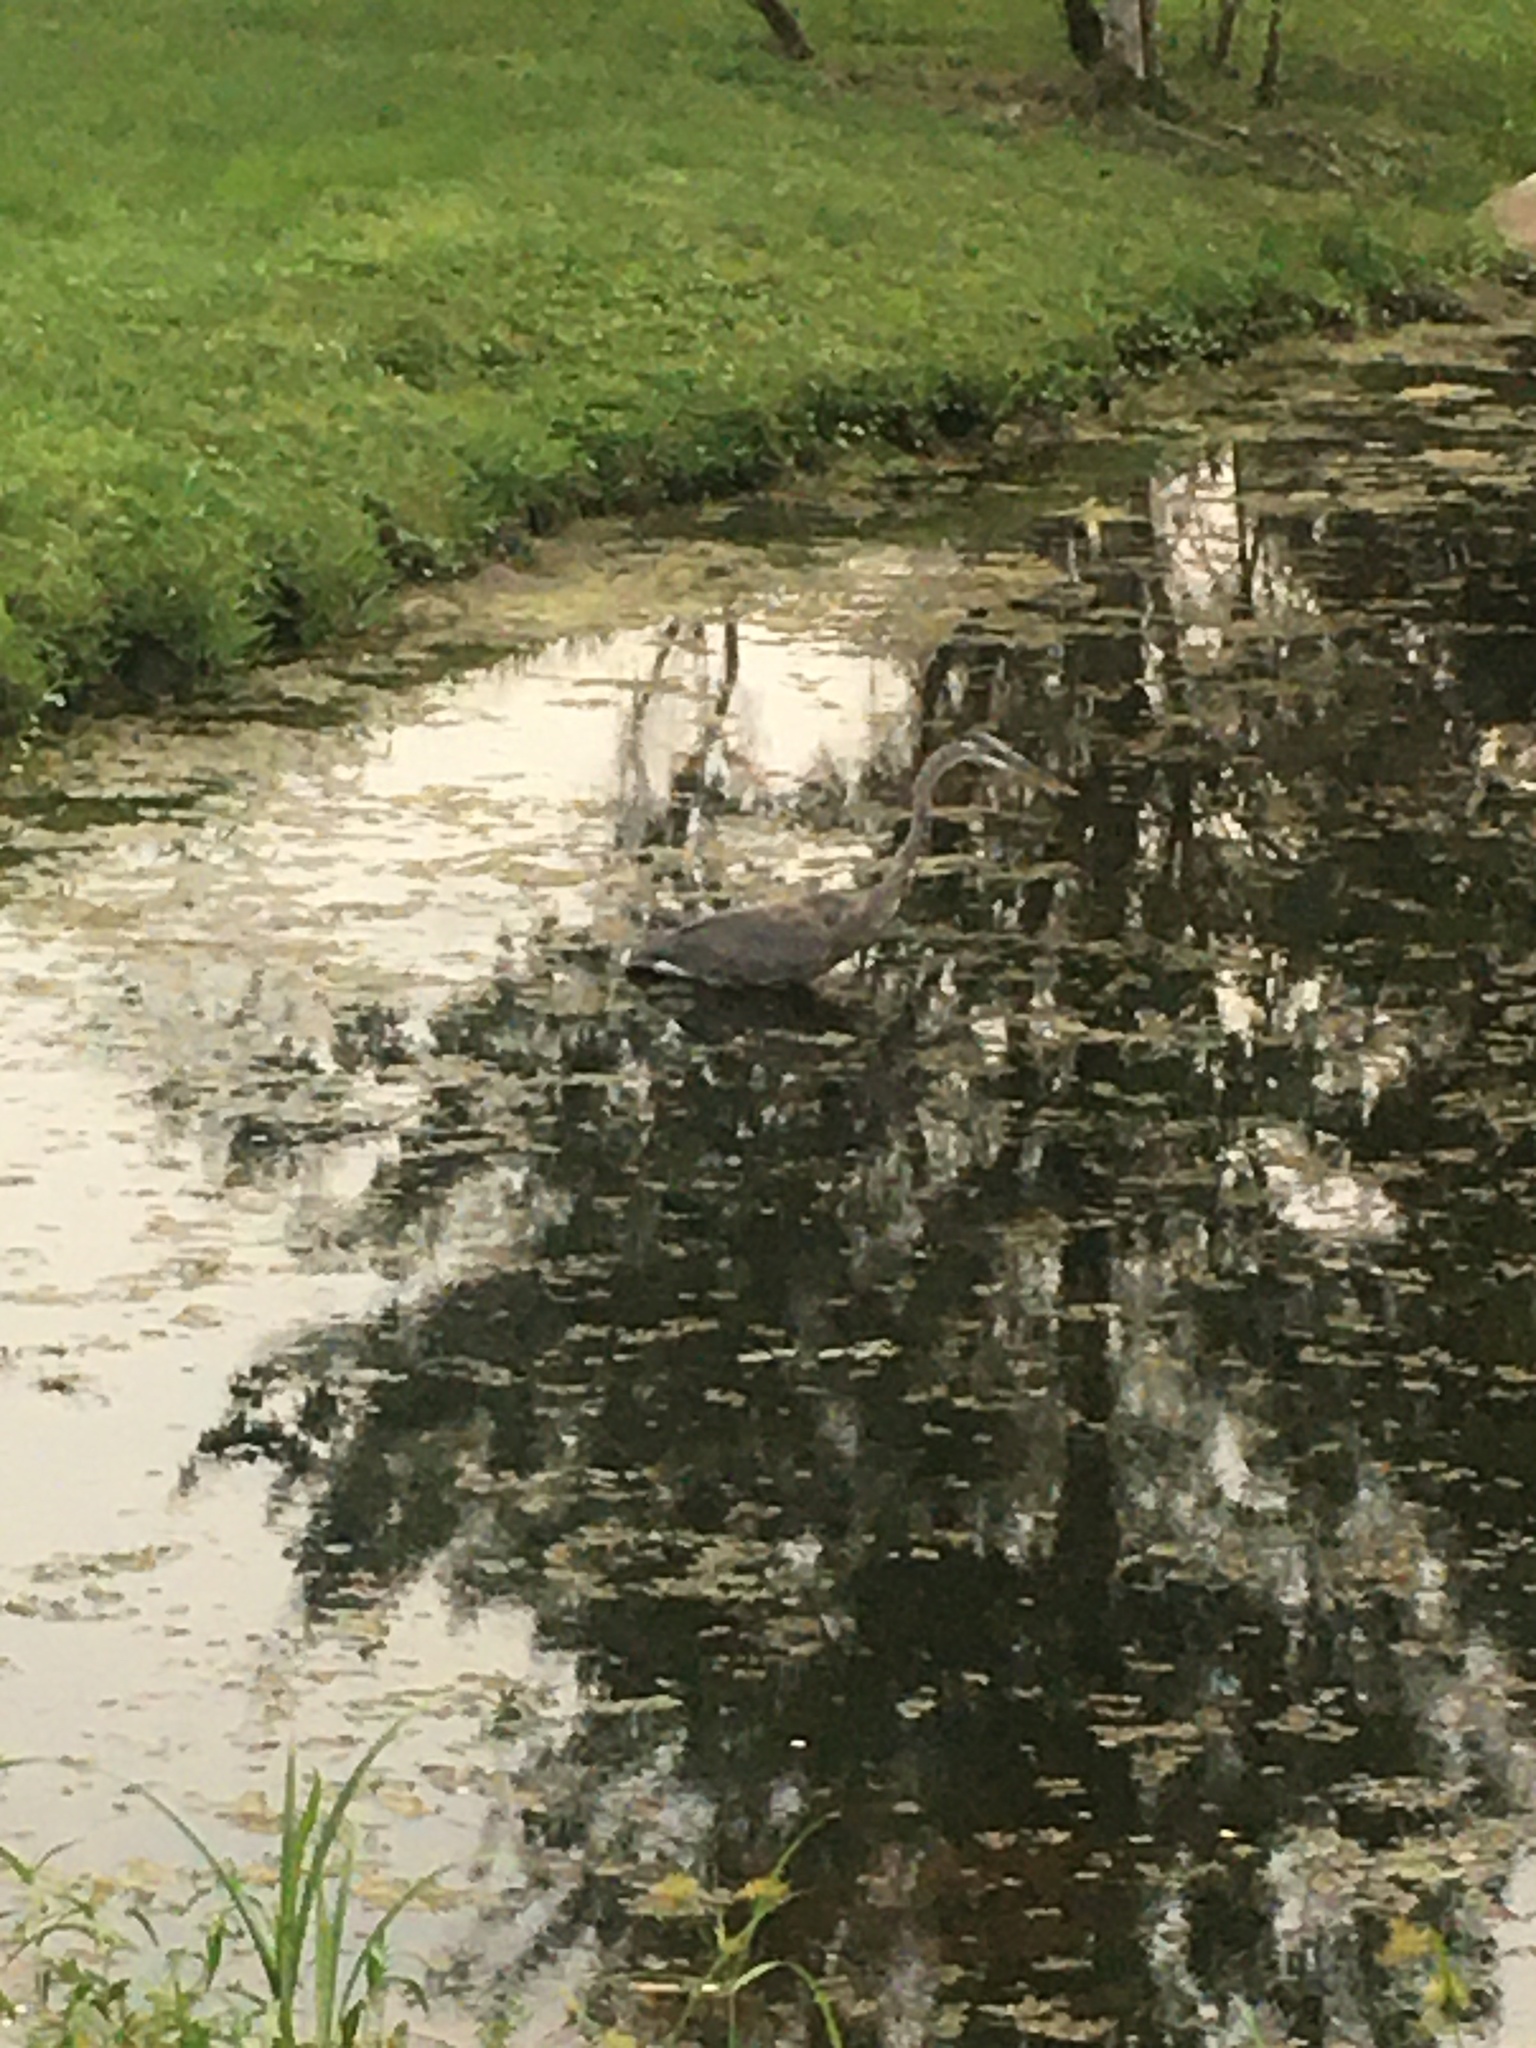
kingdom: Animalia
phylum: Chordata
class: Aves
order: Pelecaniformes
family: Ardeidae
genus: Ardea
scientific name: Ardea herodias
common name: Great blue heron
